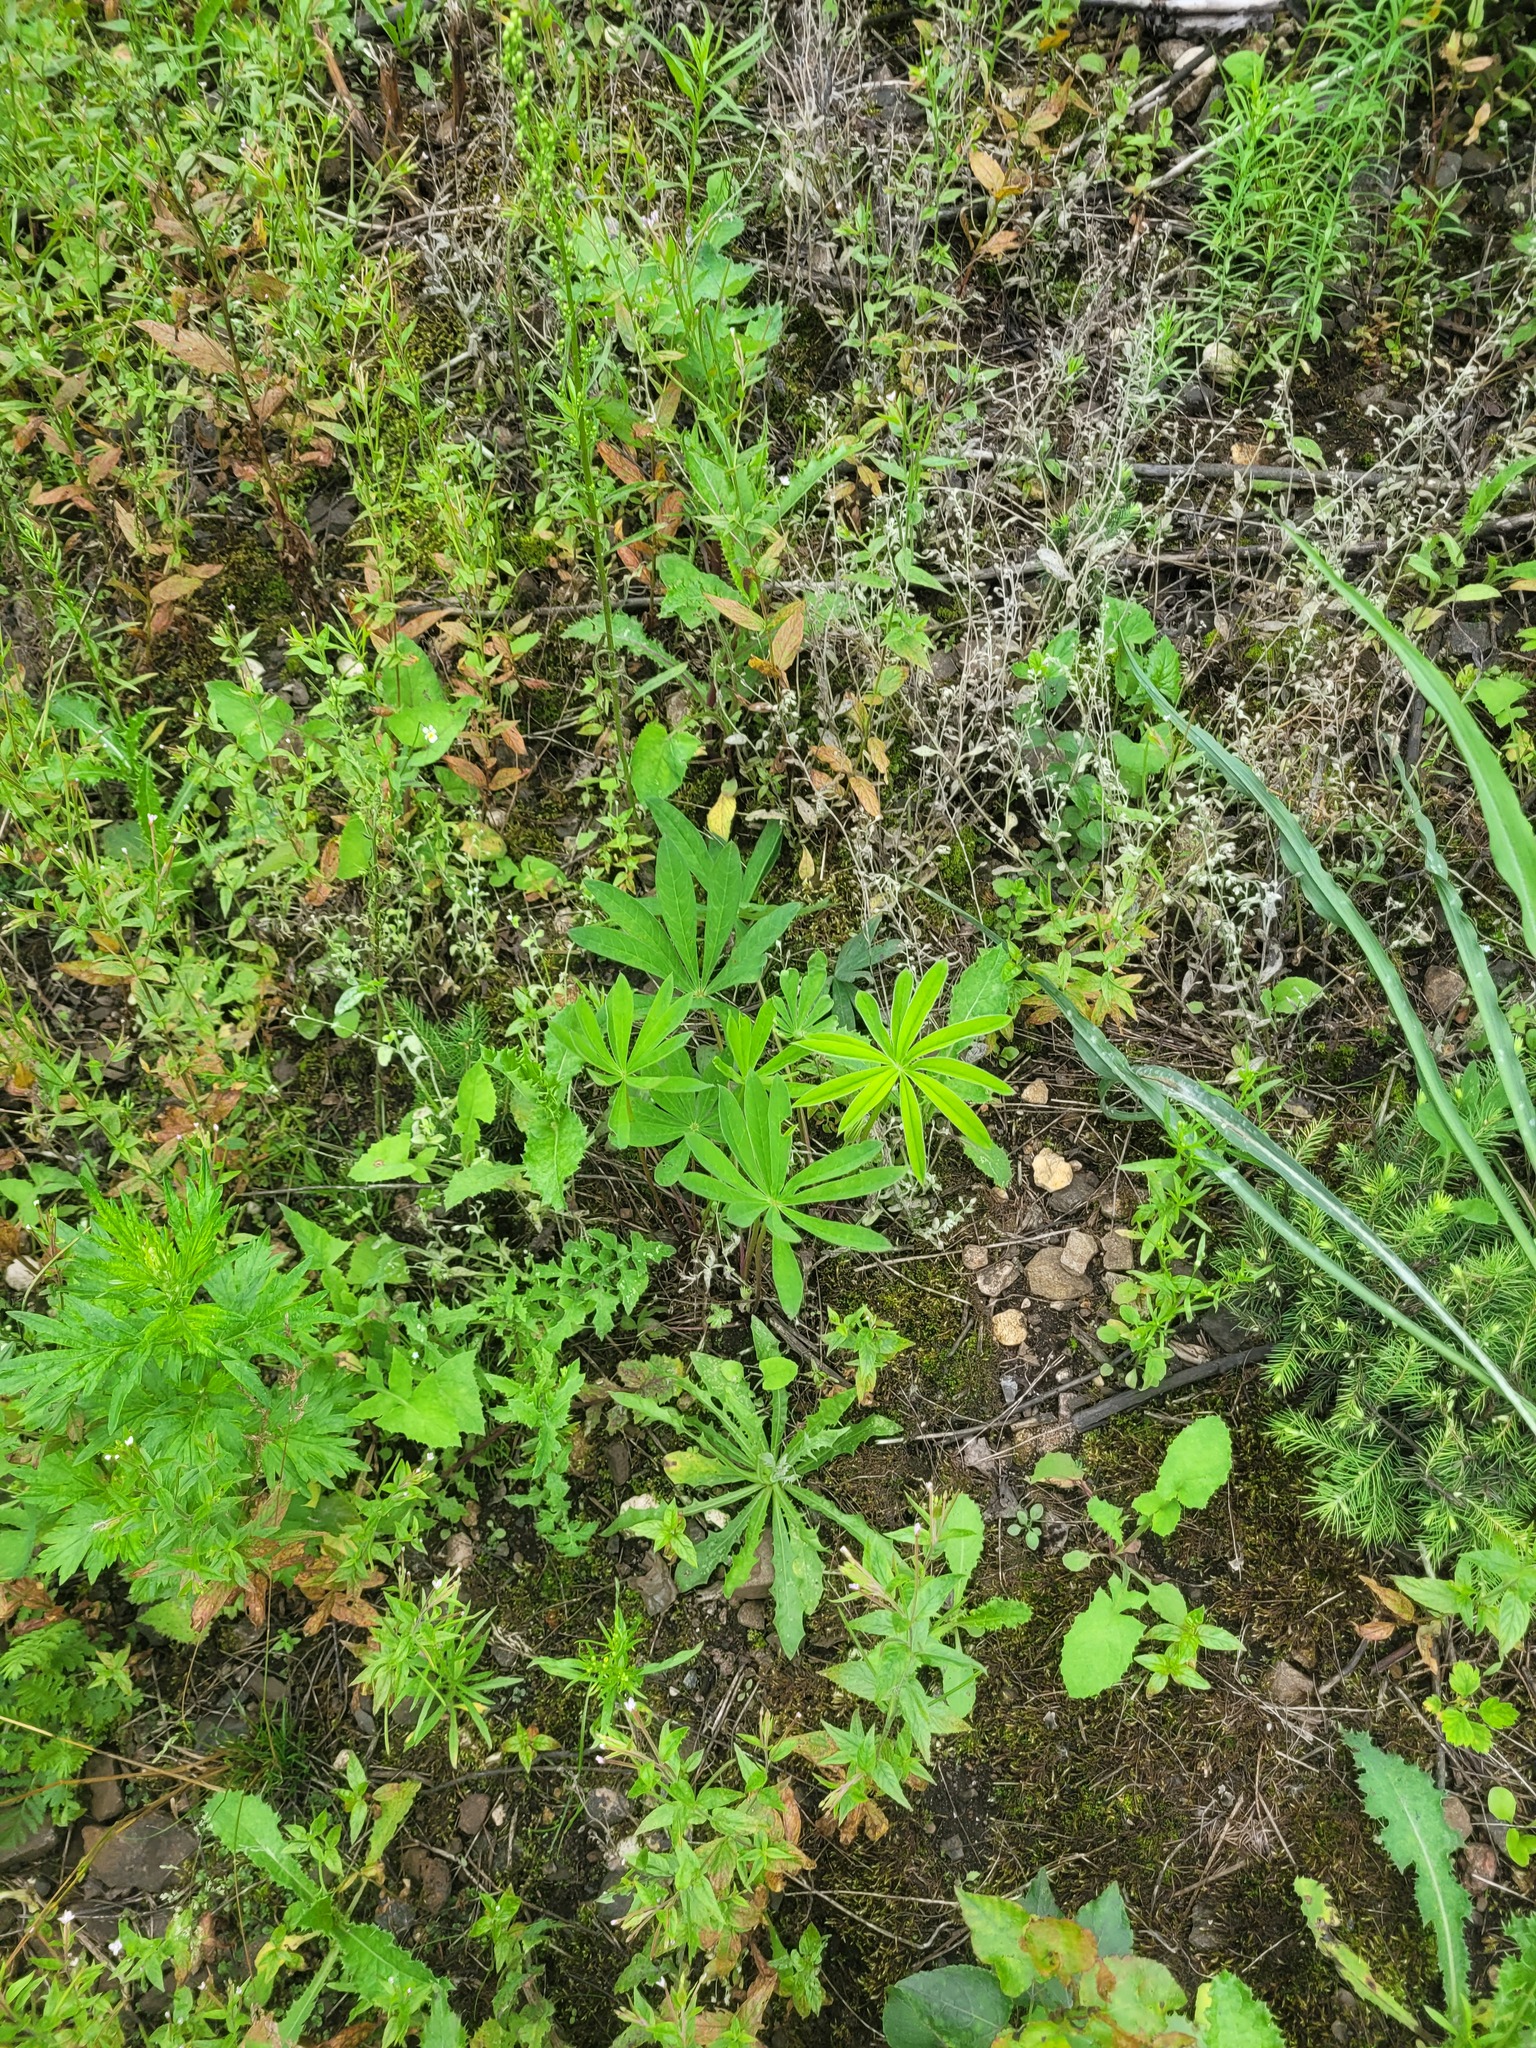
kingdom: Plantae
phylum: Tracheophyta
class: Magnoliopsida
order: Fabales
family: Fabaceae
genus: Lupinus
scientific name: Lupinus polyphyllus
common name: Garden lupin
